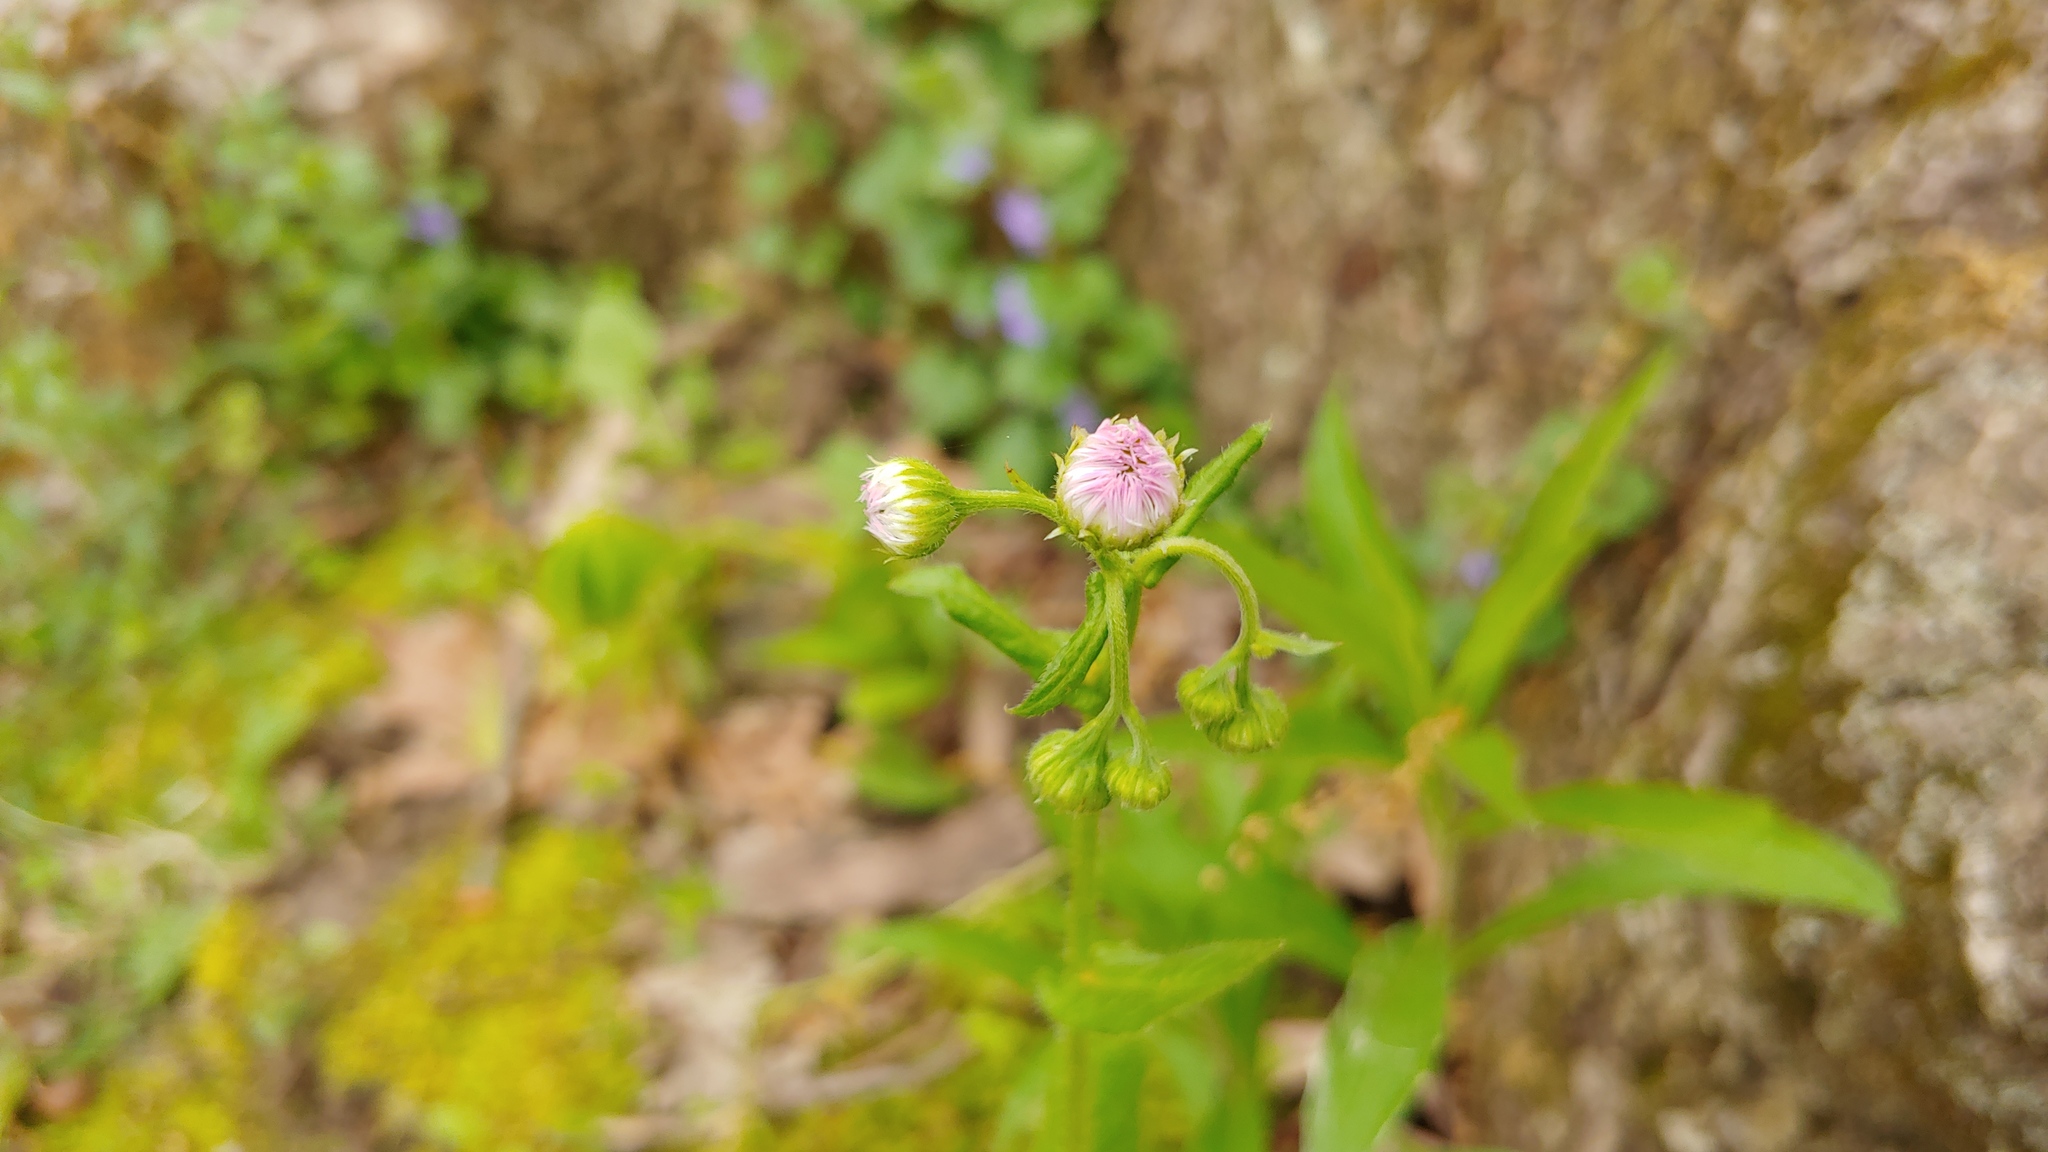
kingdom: Plantae
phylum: Tracheophyta
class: Magnoliopsida
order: Asterales
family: Asteraceae
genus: Erigeron
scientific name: Erigeron philadelphicus
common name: Robin's-plantain
